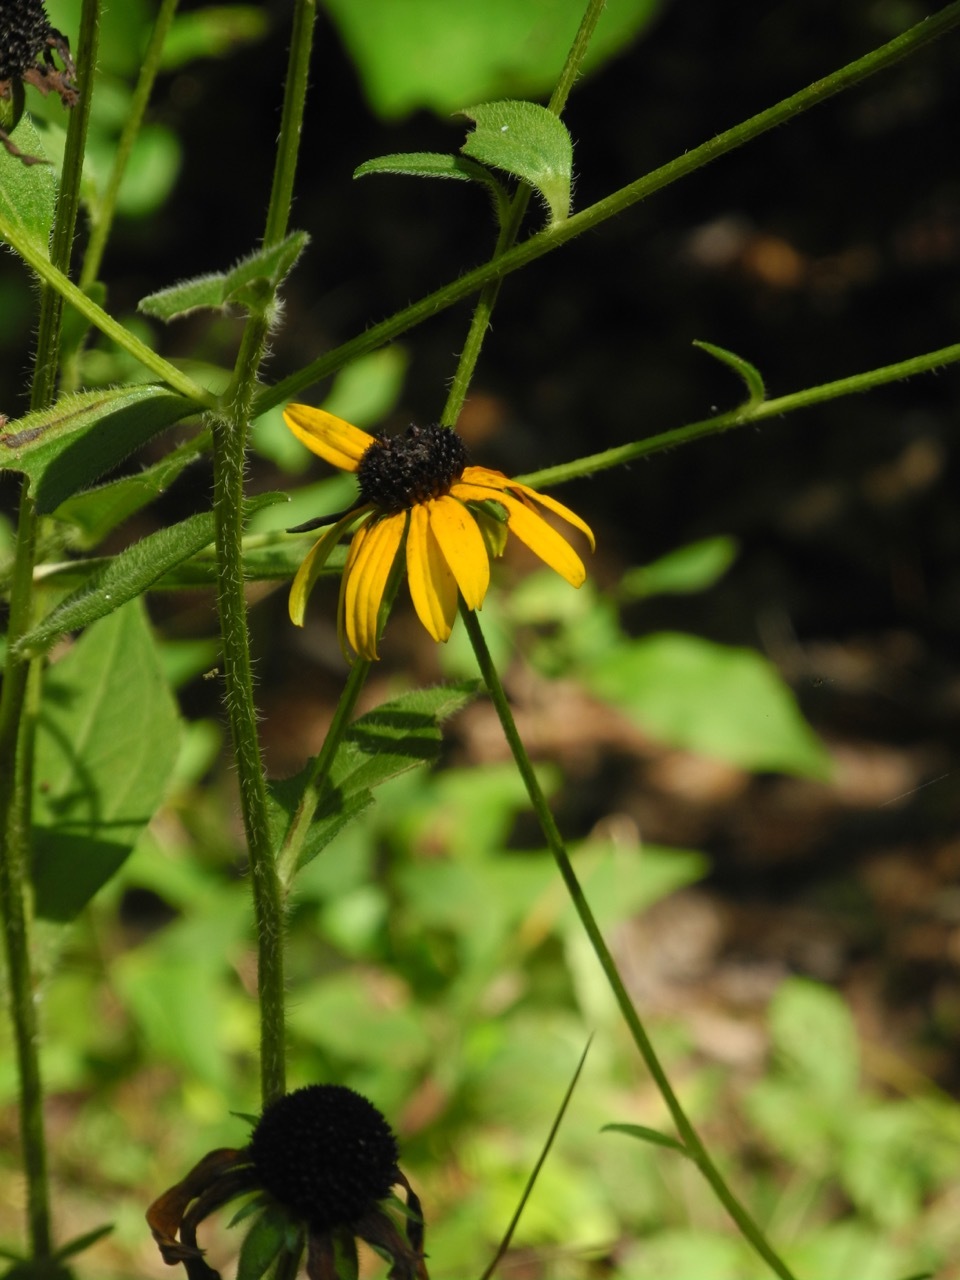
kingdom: Plantae
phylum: Tracheophyta
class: Magnoliopsida
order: Asterales
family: Asteraceae
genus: Rudbeckia
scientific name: Rudbeckia hirta
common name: Black-eyed-susan
